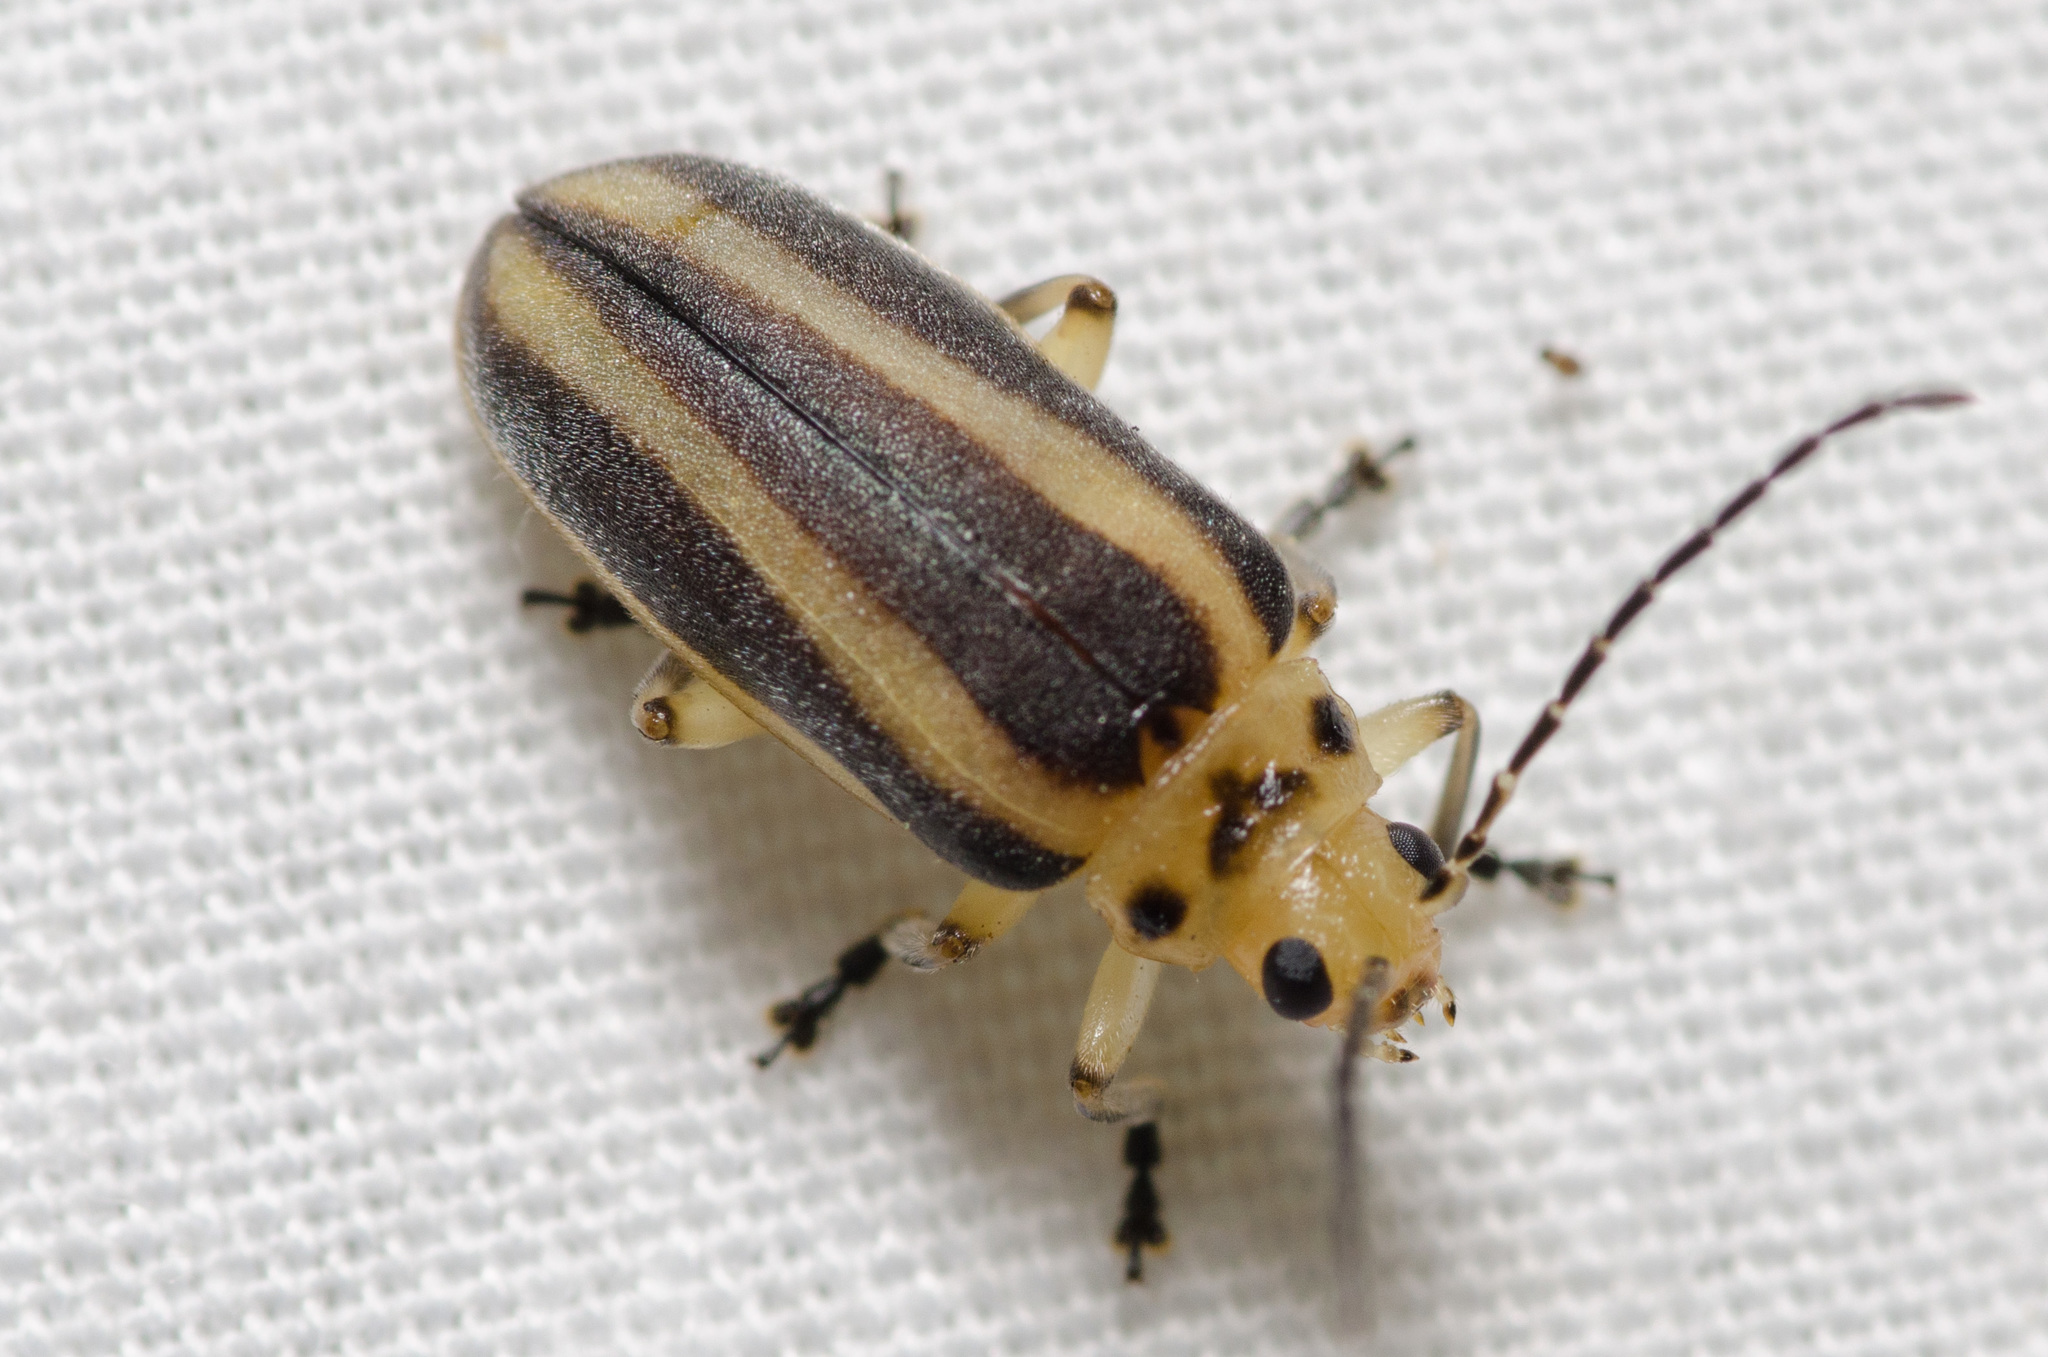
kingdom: Animalia
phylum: Arthropoda
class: Insecta
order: Coleoptera
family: Chrysomelidae
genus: Derospidea
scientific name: Derospidea brevicollis
